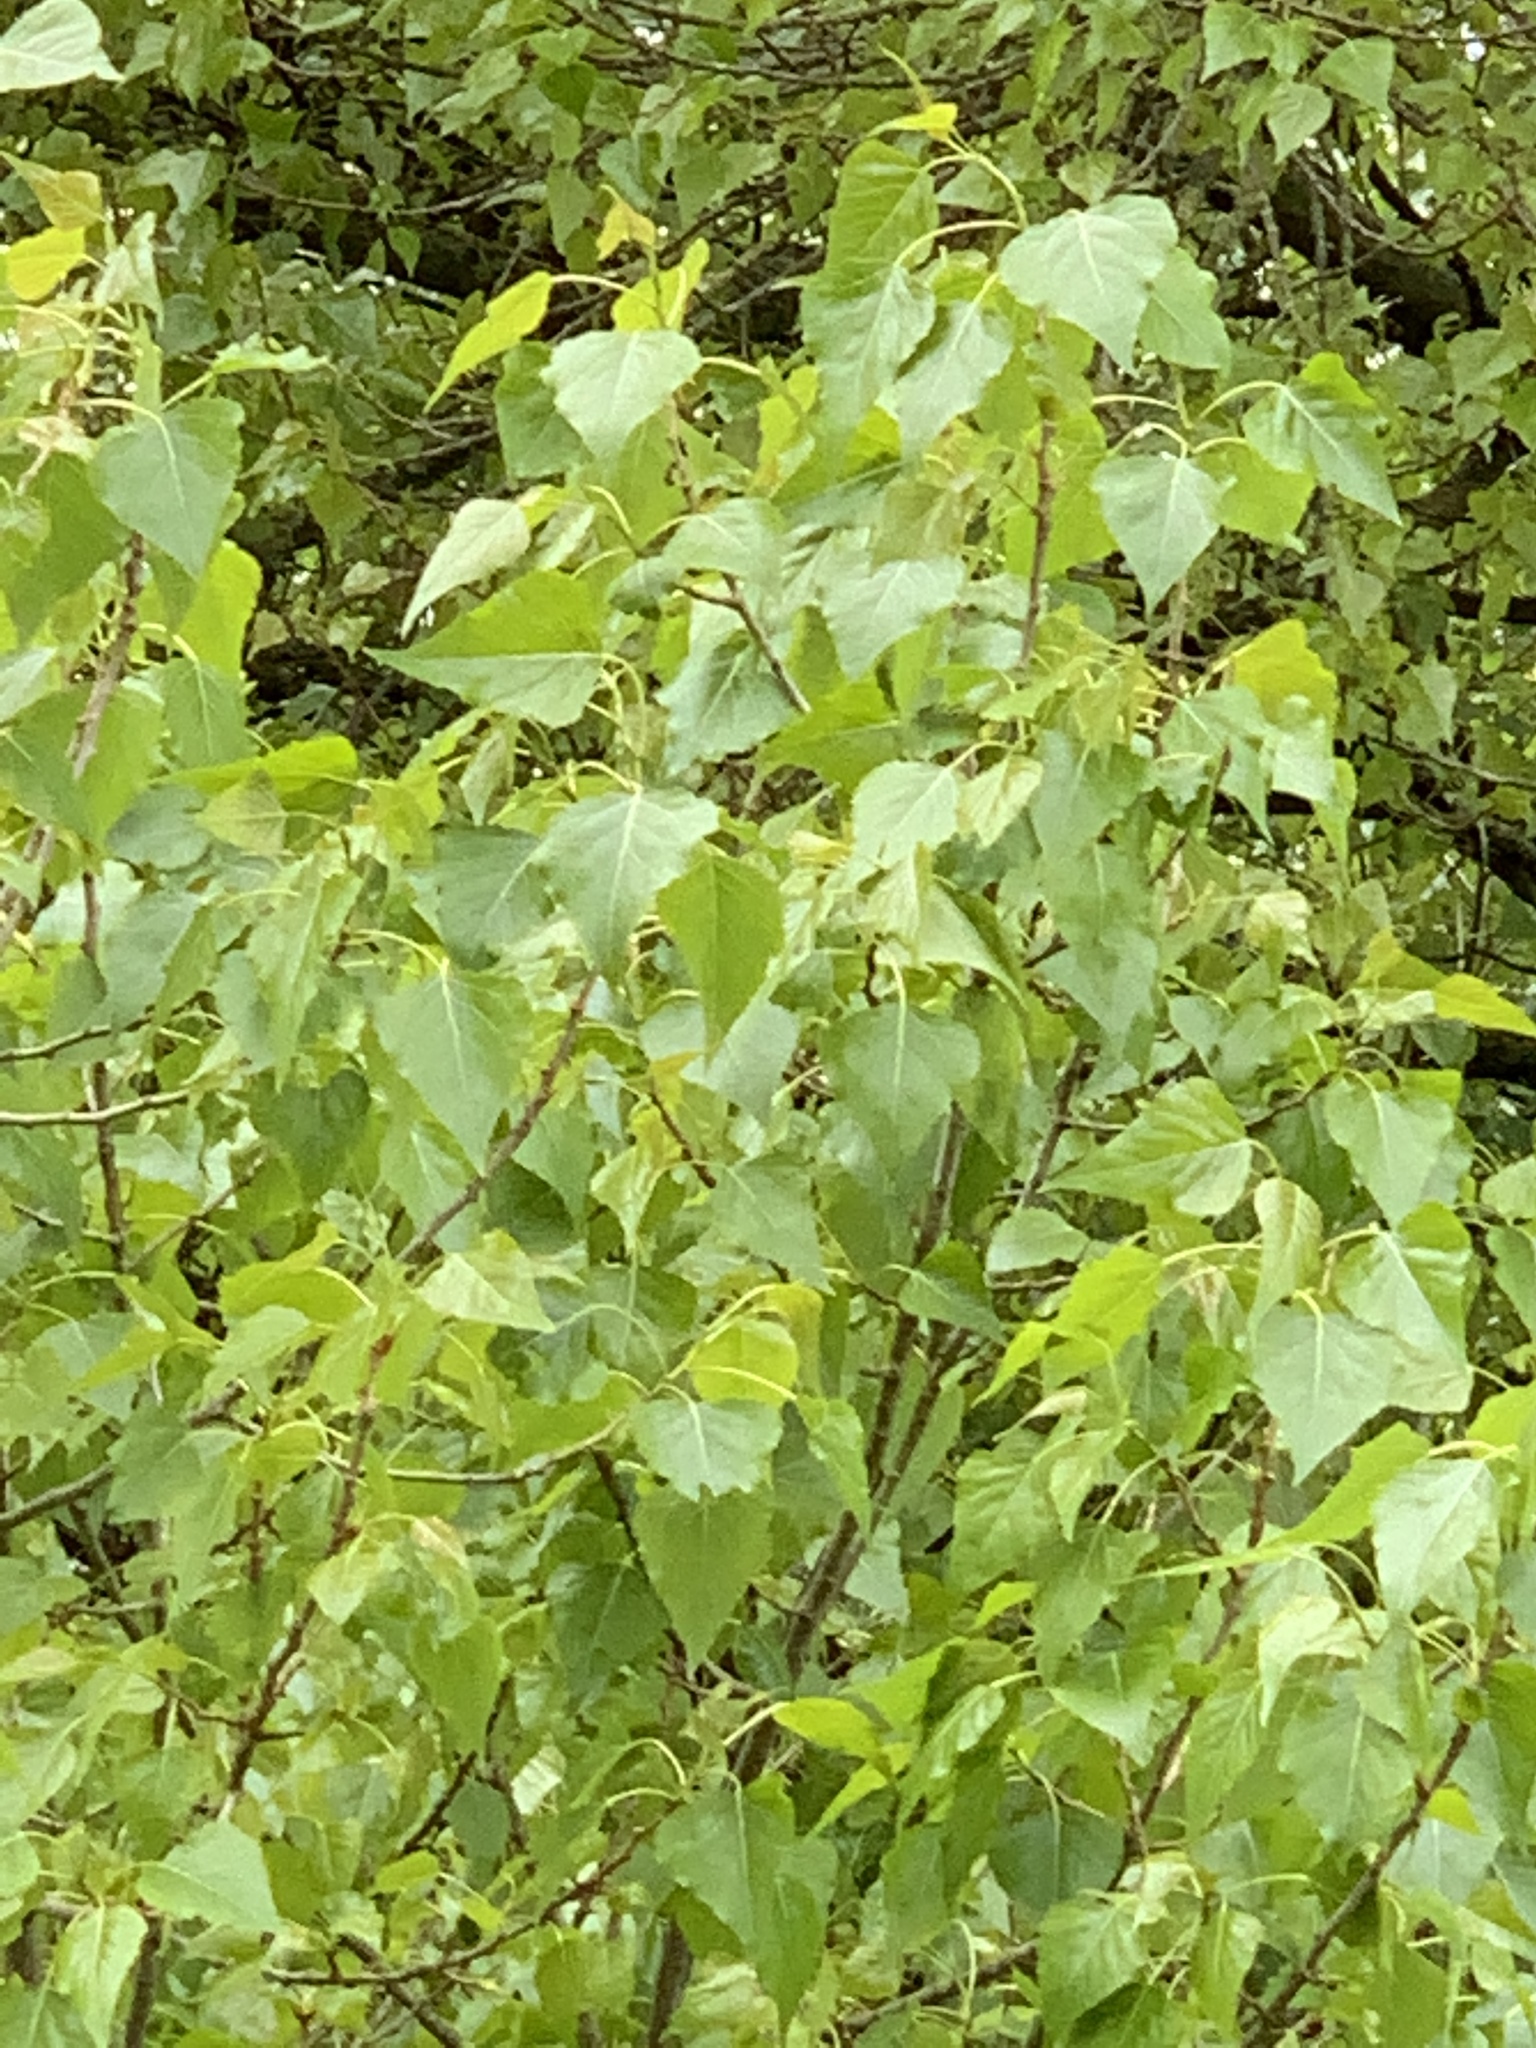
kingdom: Plantae
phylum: Tracheophyta
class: Magnoliopsida
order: Malpighiales
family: Salicaceae
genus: Populus
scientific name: Populus canadensis
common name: Carolina poplar
